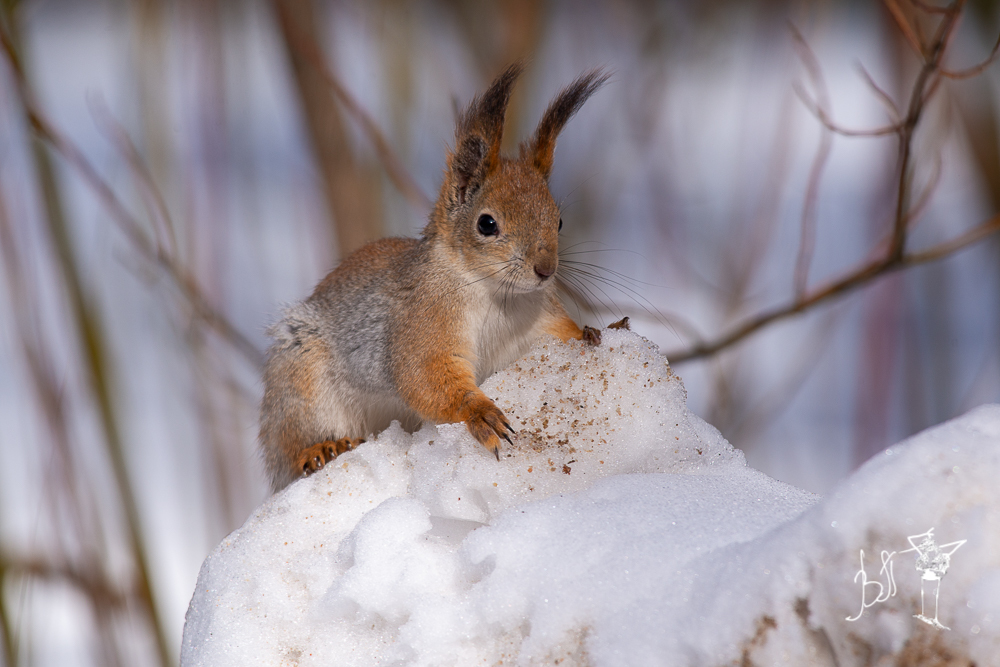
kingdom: Animalia
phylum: Chordata
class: Mammalia
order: Rodentia
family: Sciuridae
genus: Sciurus
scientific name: Sciurus vulgaris
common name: Eurasian red squirrel
